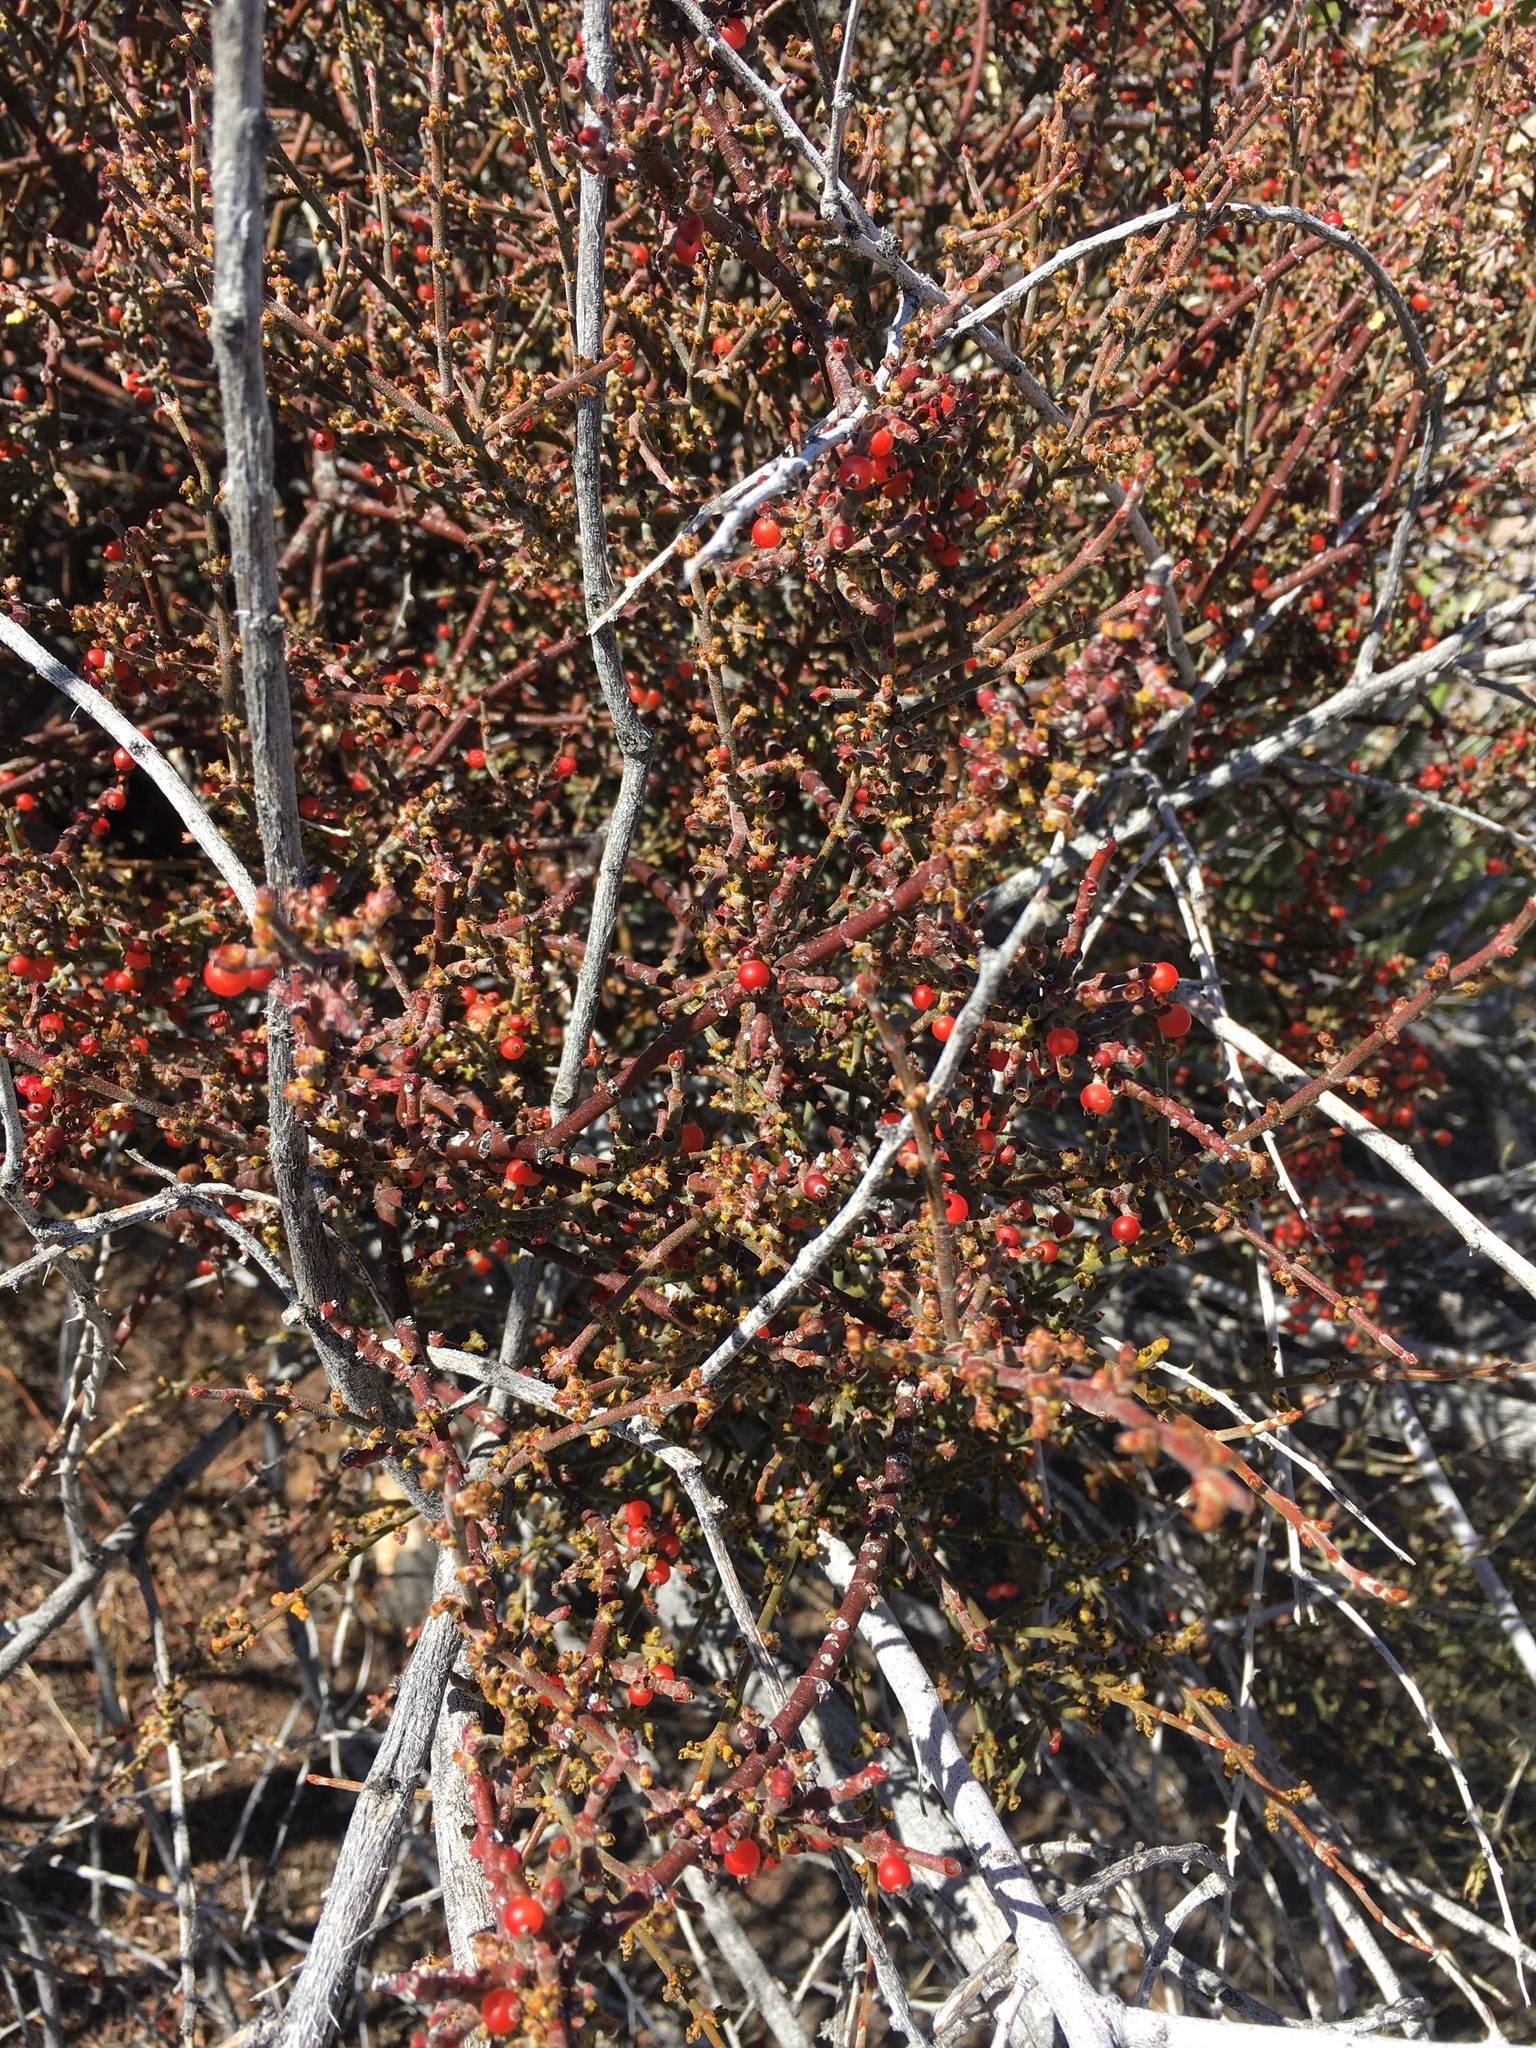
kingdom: Plantae
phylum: Tracheophyta
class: Magnoliopsida
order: Santalales
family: Viscaceae
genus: Phoradendron
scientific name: Phoradendron californicum
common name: Acacia mistletoe
